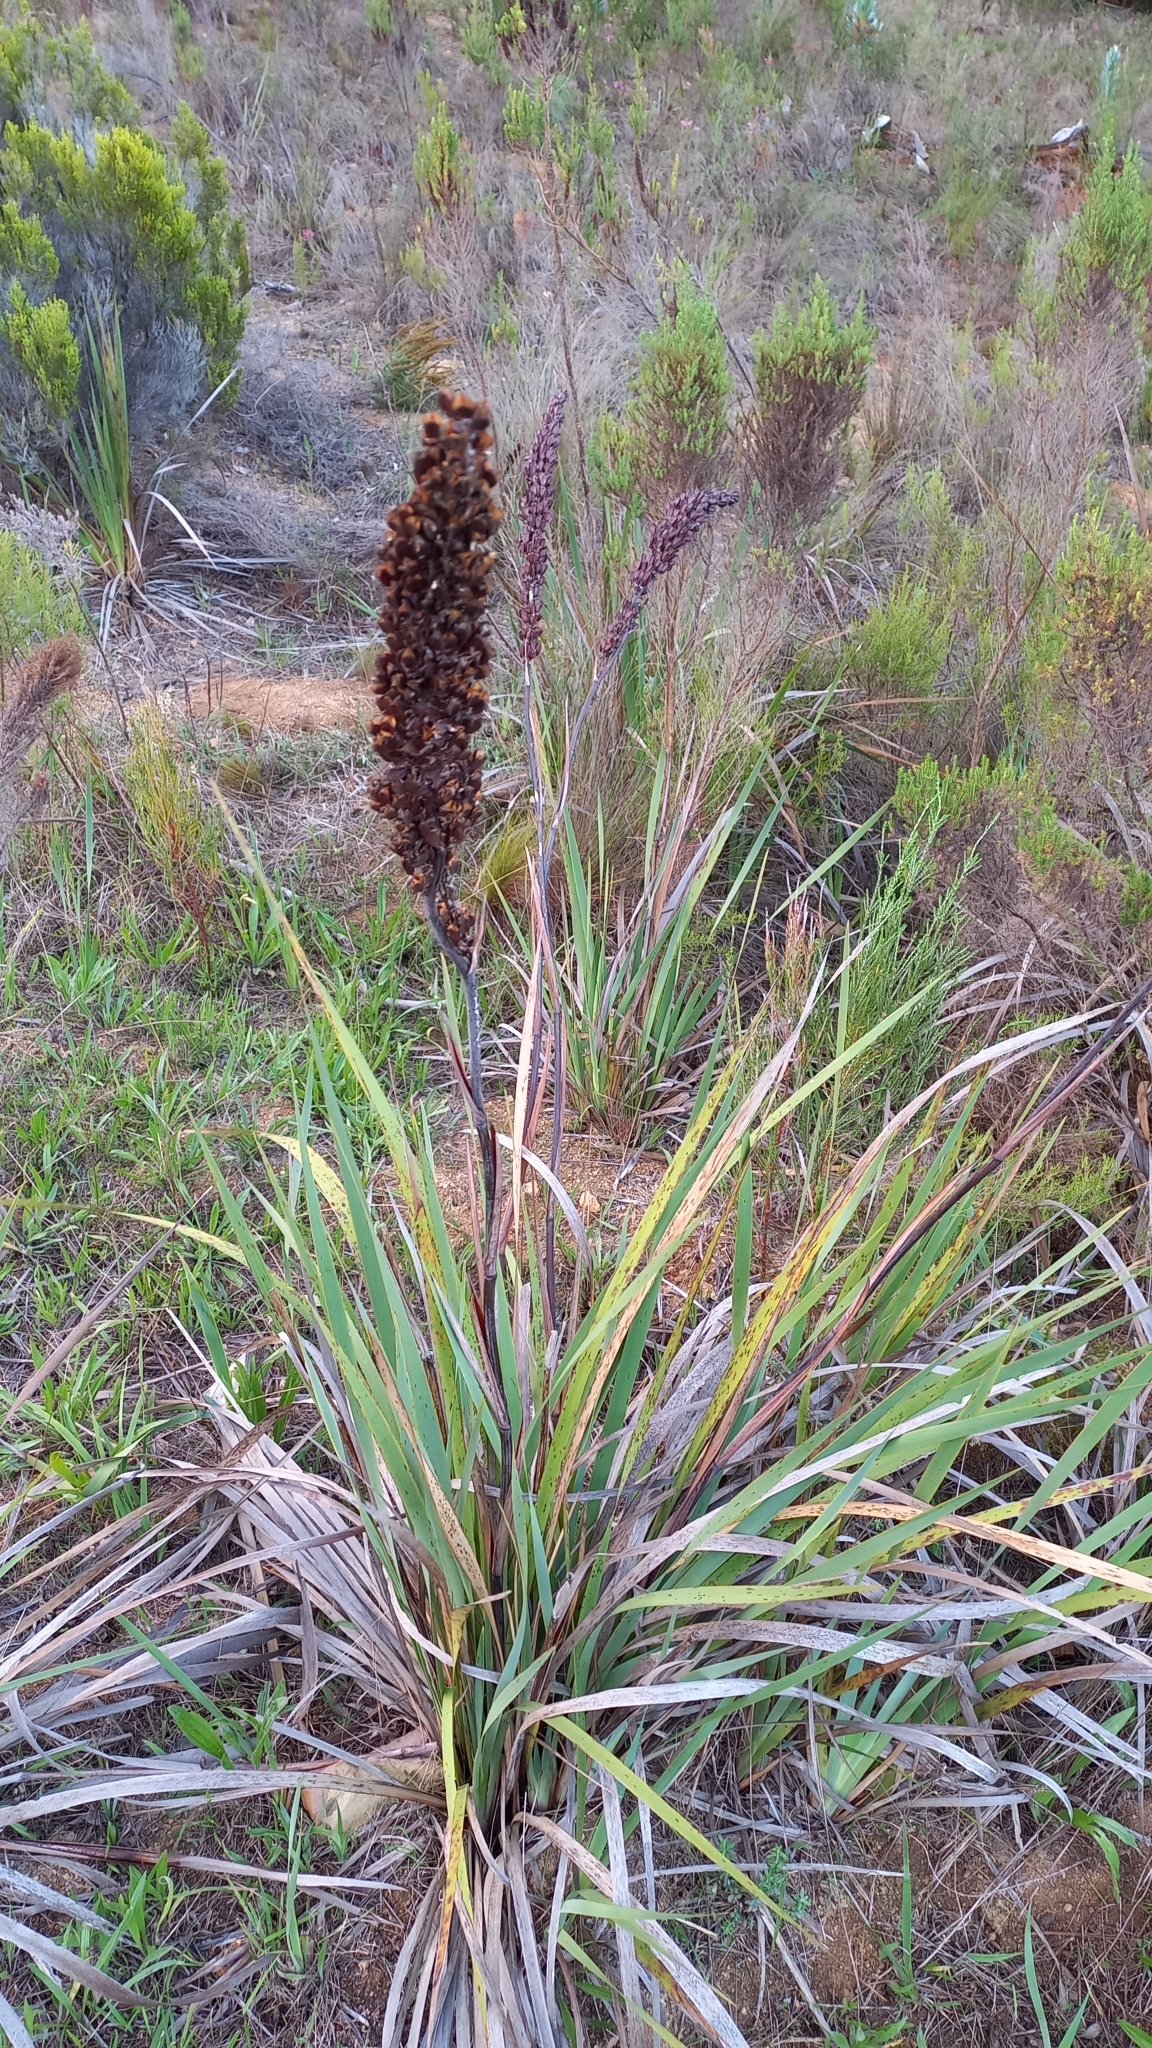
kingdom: Plantae
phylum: Tracheophyta
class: Liliopsida
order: Asparagales
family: Iridaceae
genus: Aristea
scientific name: Aristea capitata
